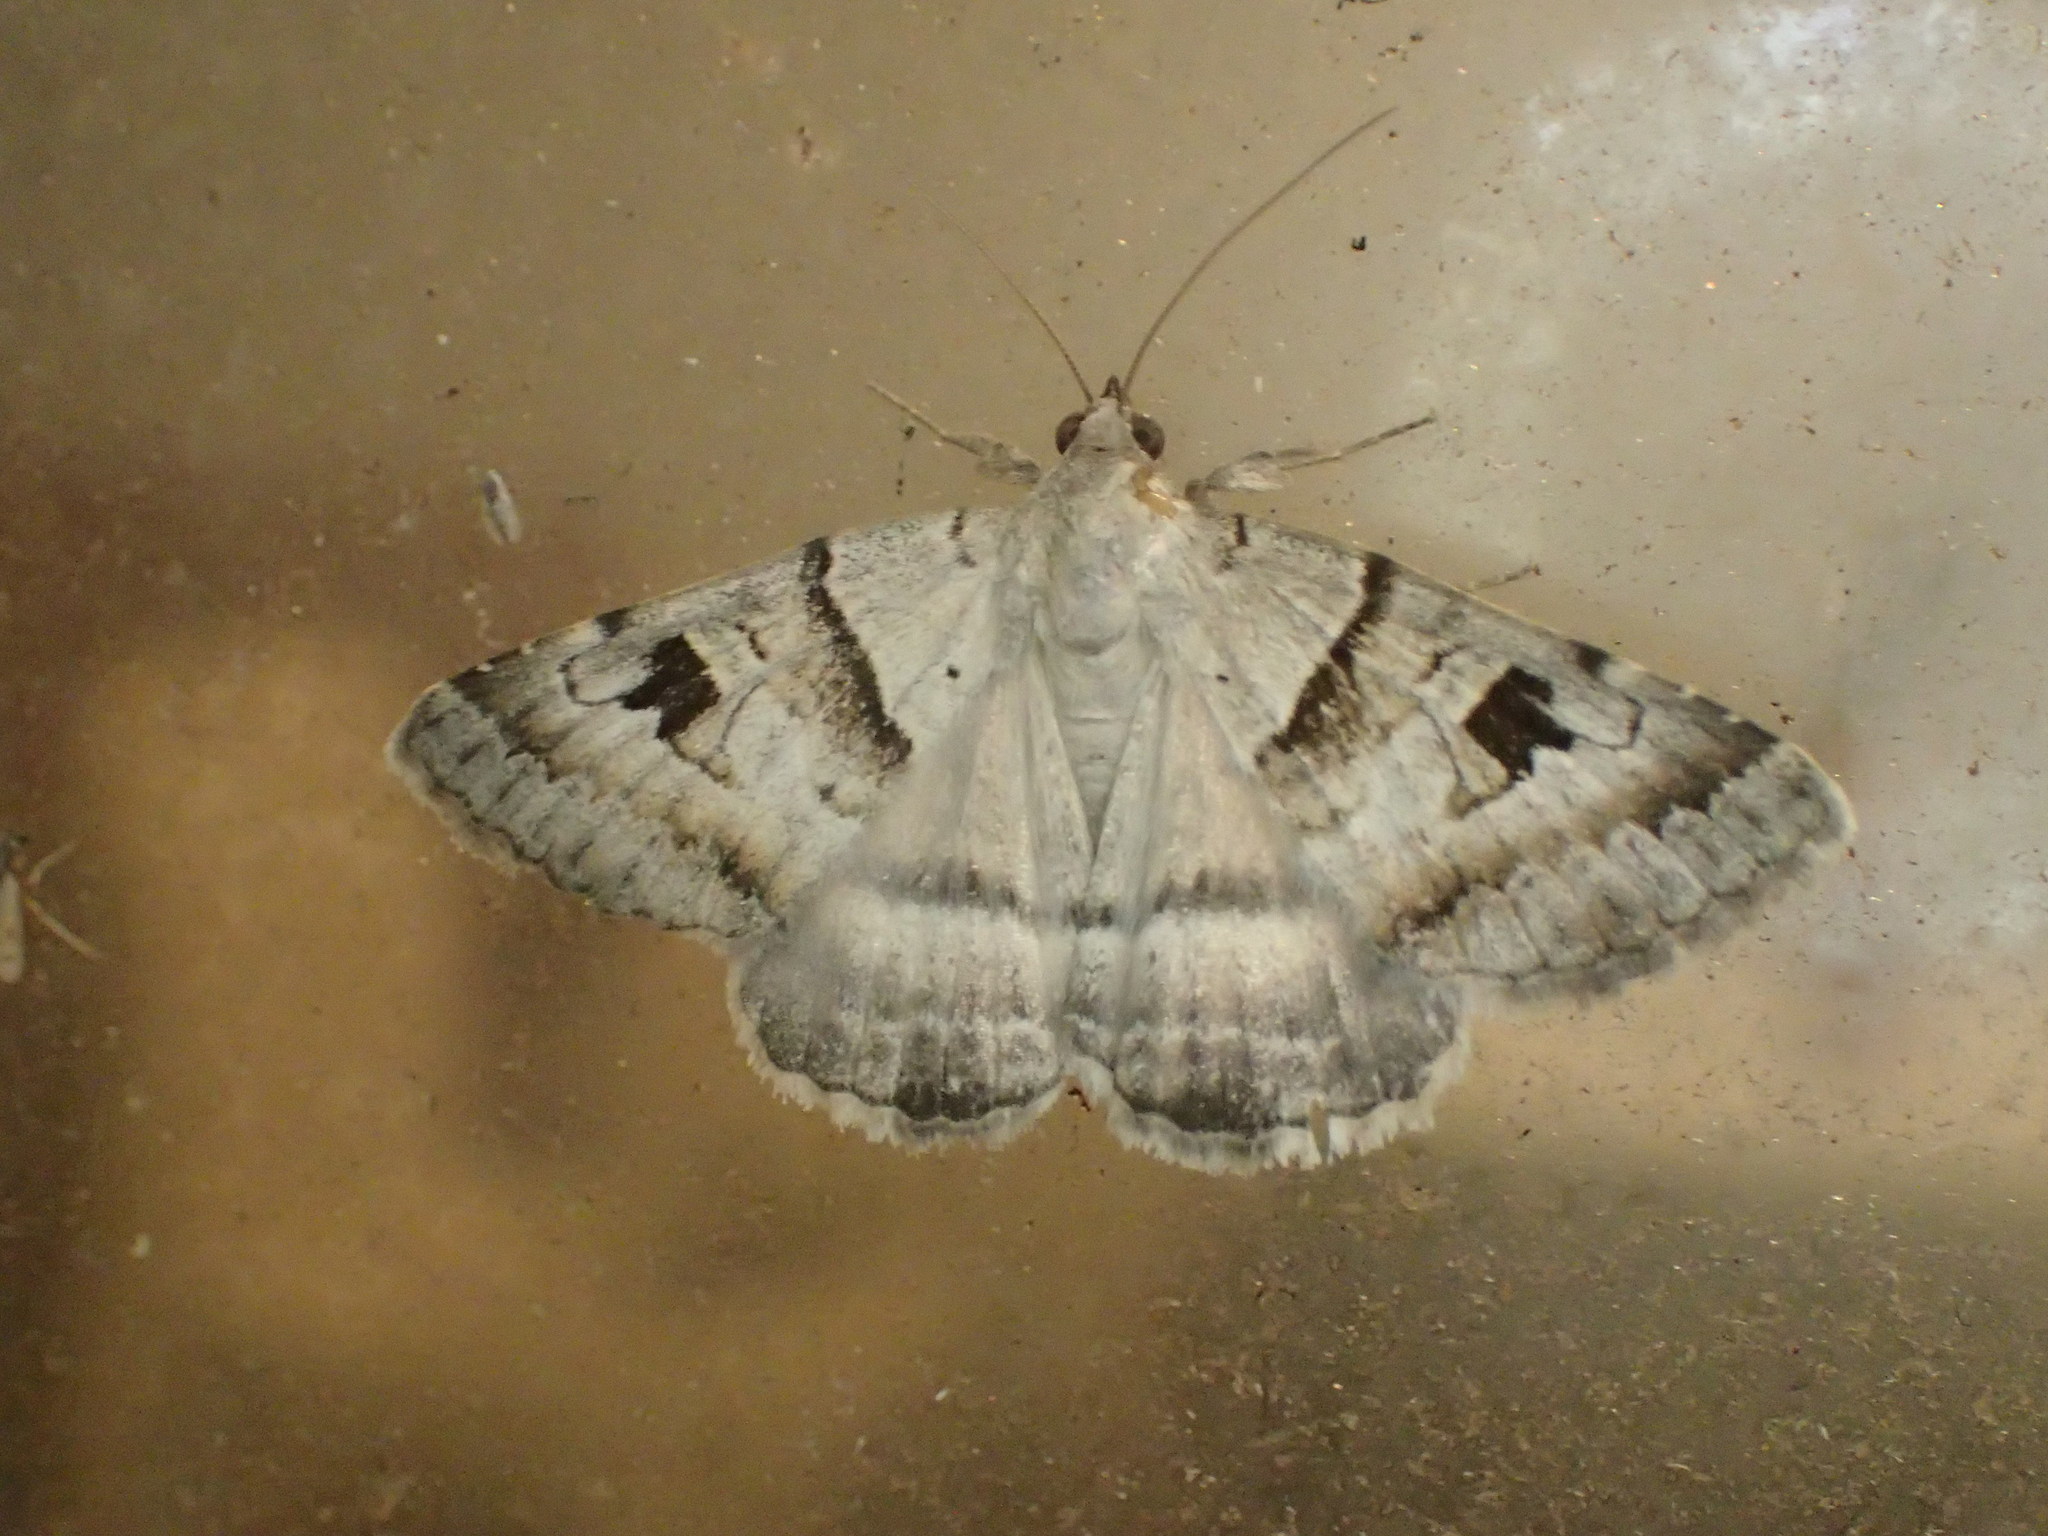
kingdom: Animalia
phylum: Arthropoda
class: Insecta
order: Lepidoptera
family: Erebidae
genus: Mocis
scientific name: Mocis alterna
